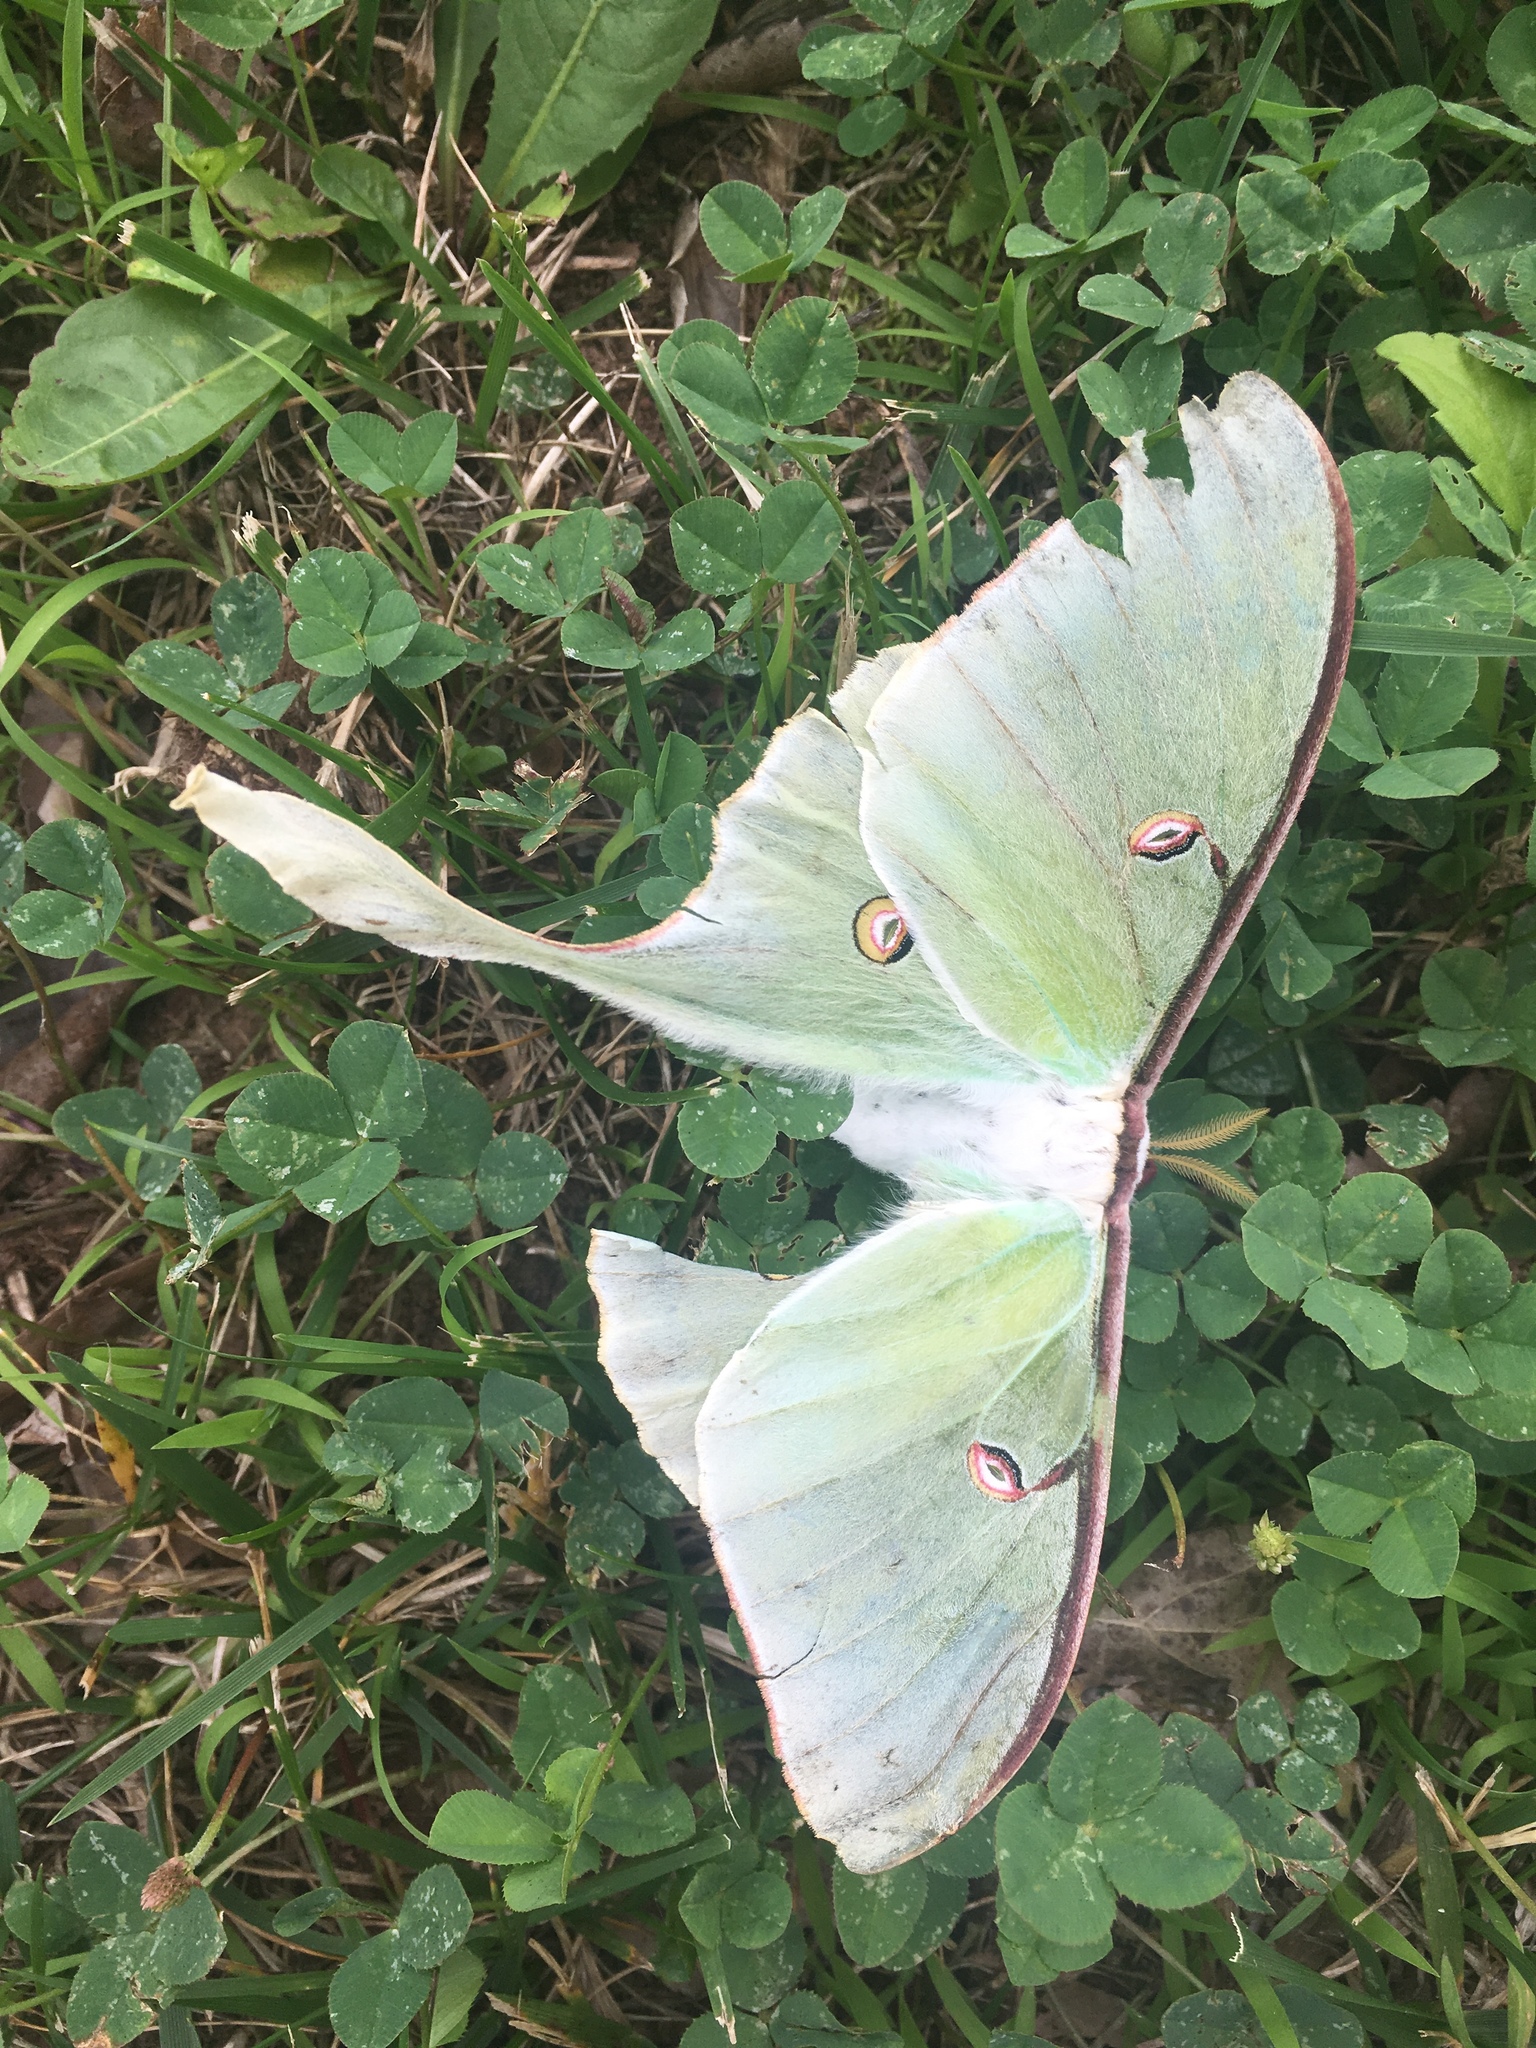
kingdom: Animalia
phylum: Arthropoda
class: Insecta
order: Lepidoptera
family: Saturniidae
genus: Actias
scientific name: Actias luna
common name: Luna moth
